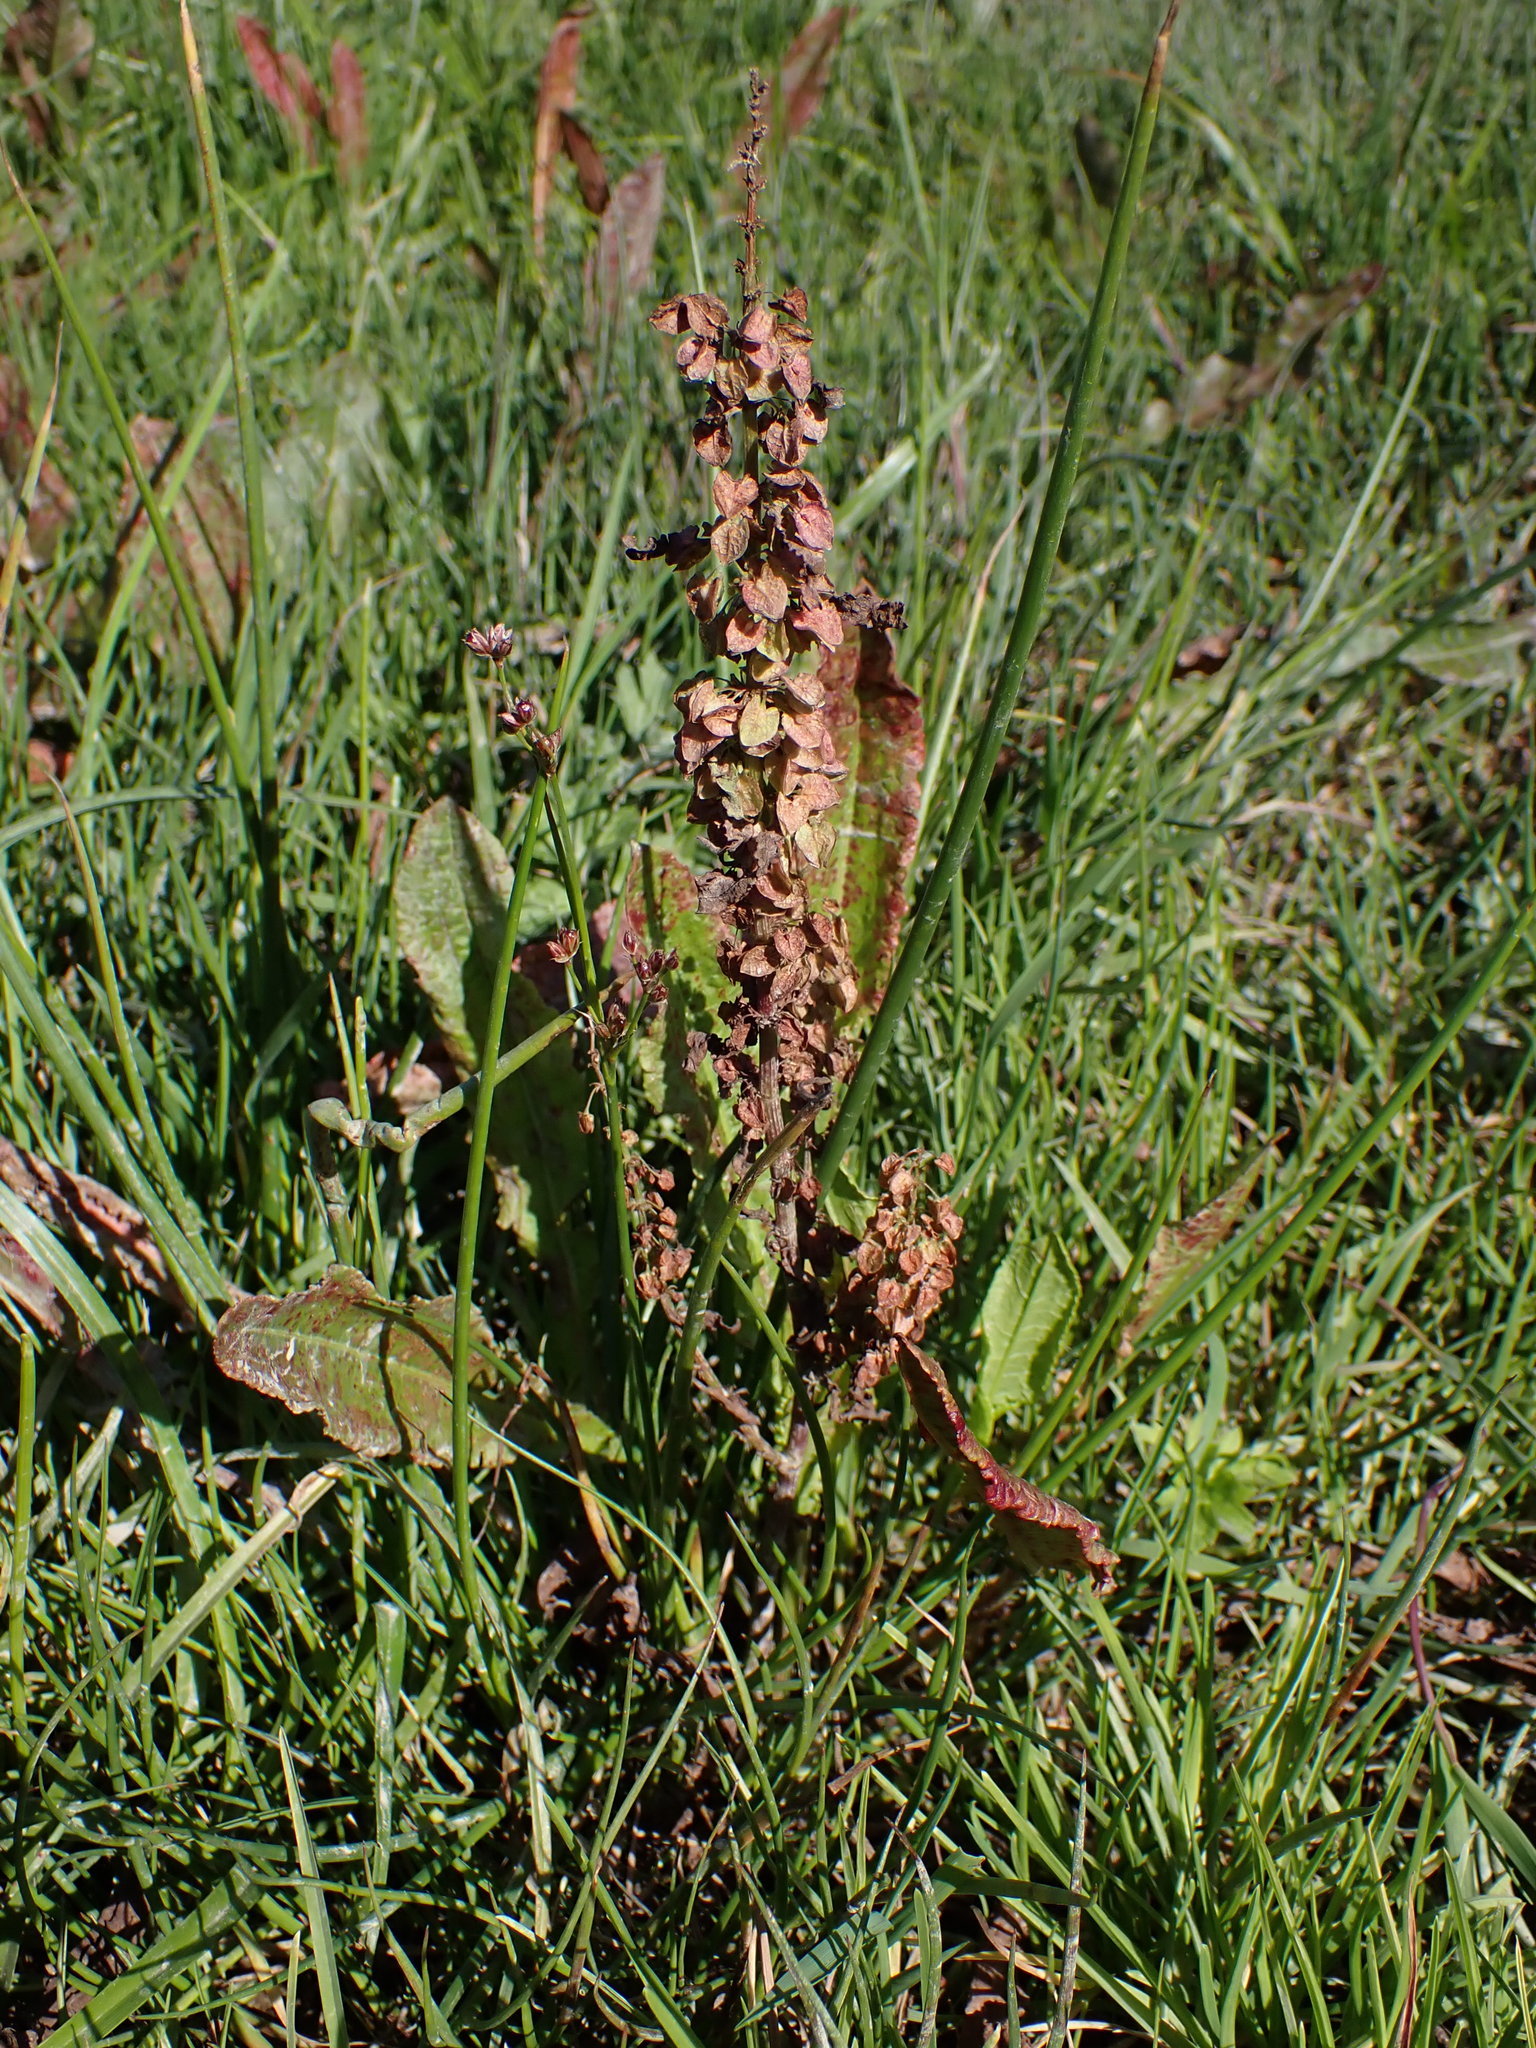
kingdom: Plantae
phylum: Tracheophyta
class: Magnoliopsida
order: Caryophyllales
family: Polygonaceae
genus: Rumex
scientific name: Rumex crispus
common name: Curled dock
